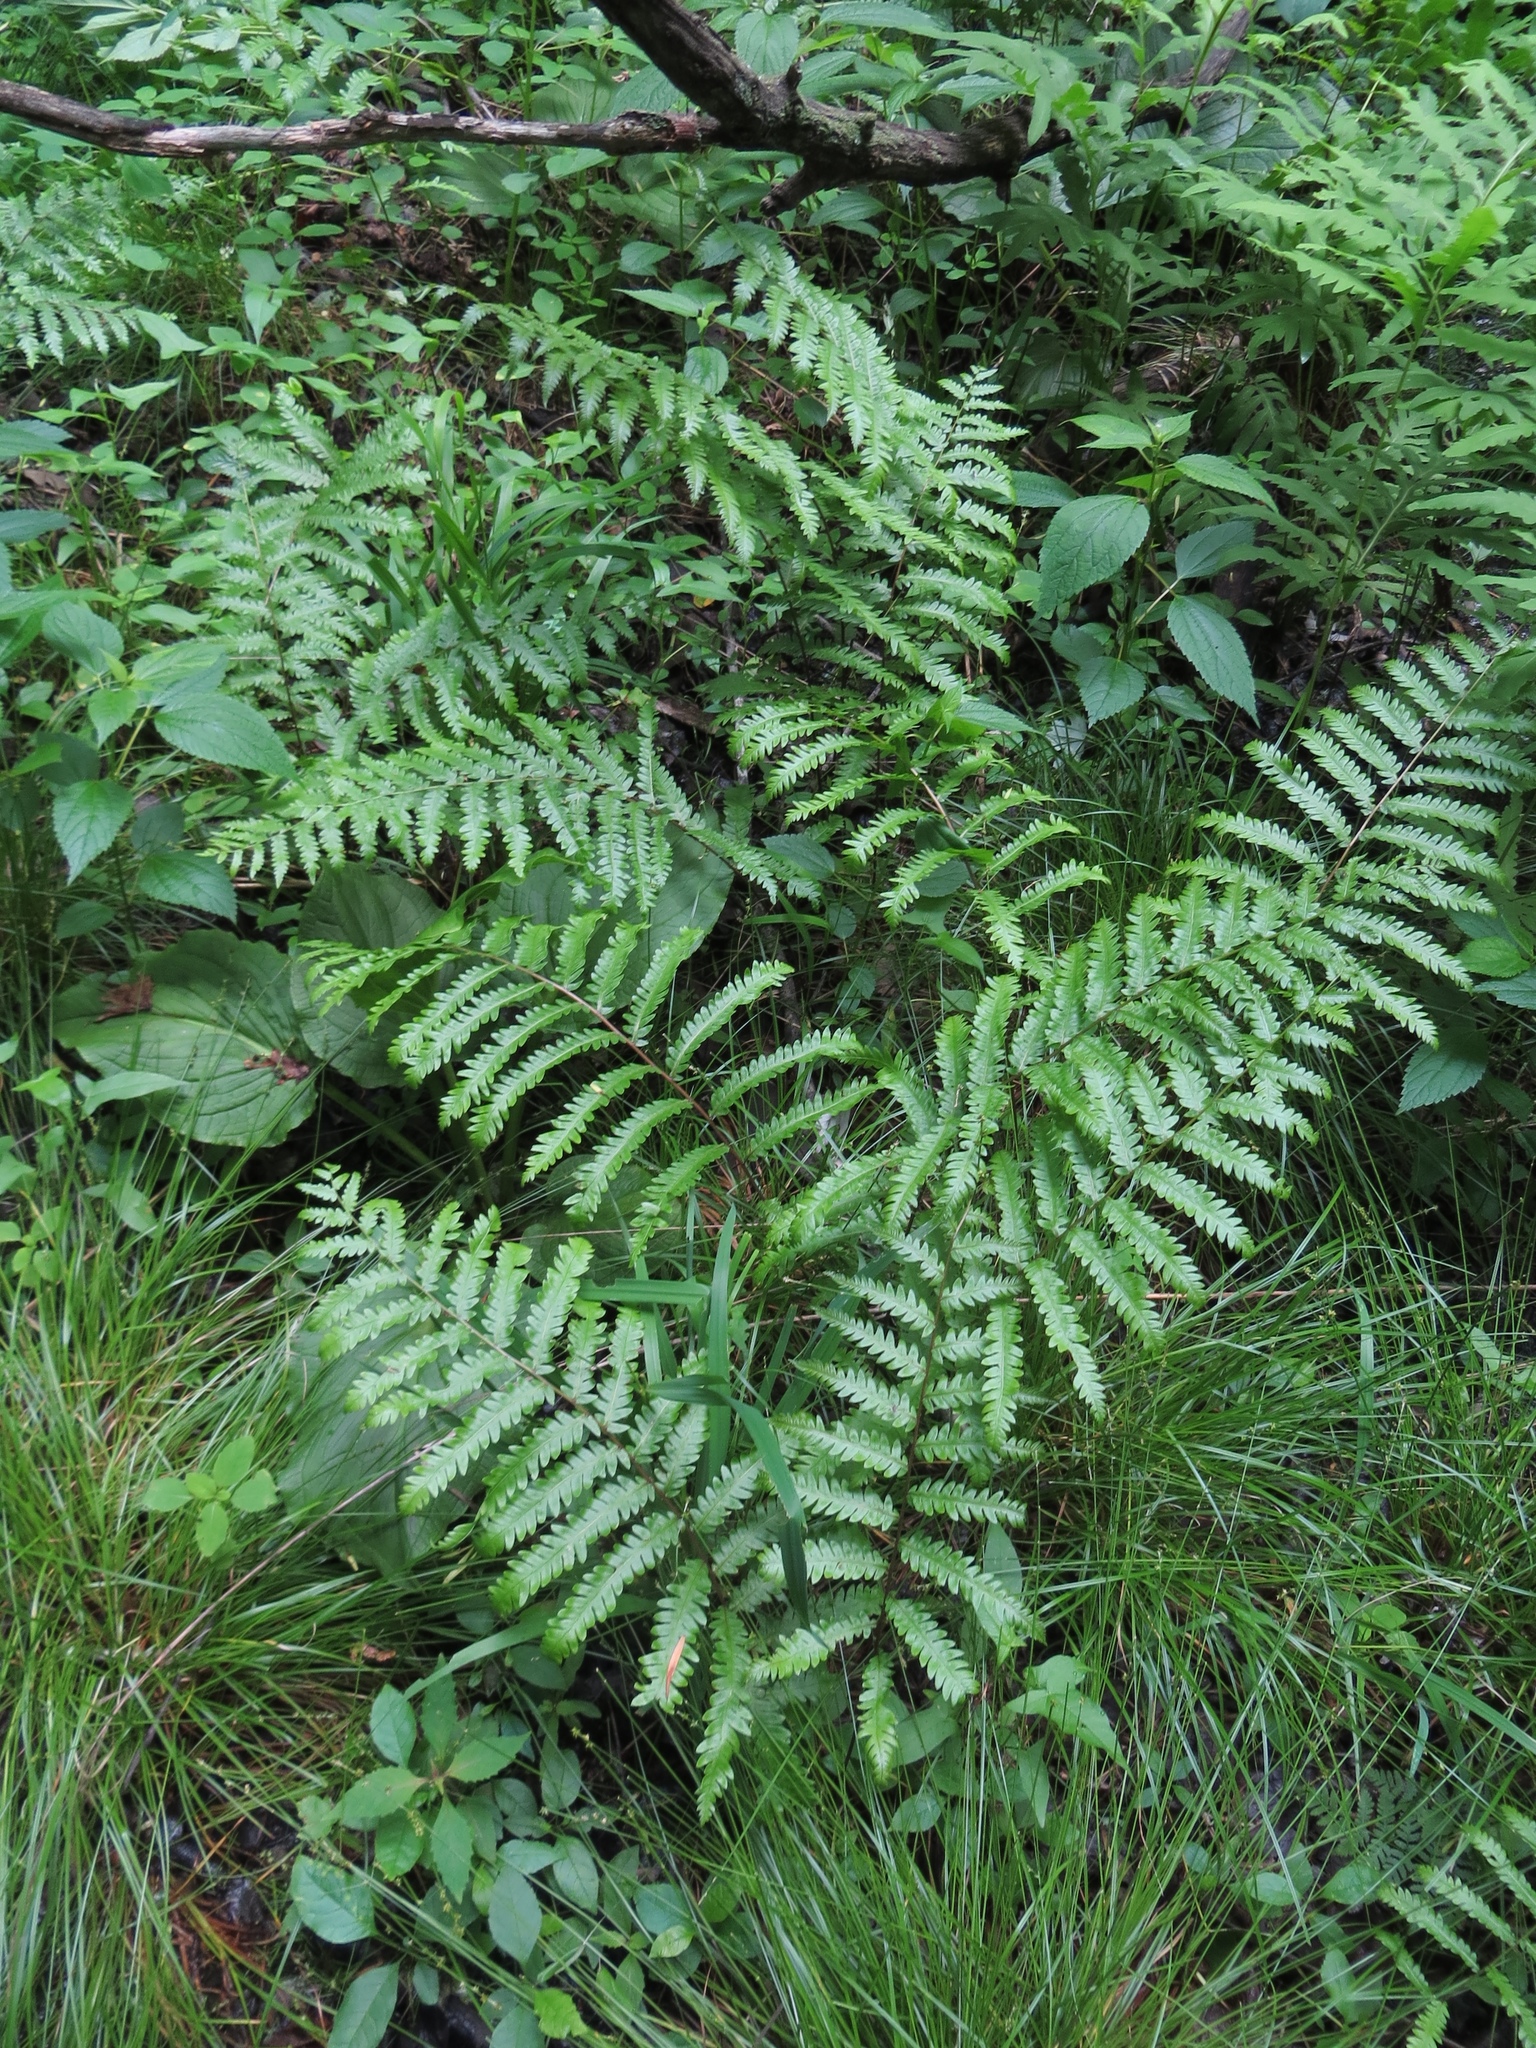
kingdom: Plantae
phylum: Tracheophyta
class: Polypodiopsida
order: Polypodiales
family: Blechnaceae
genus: Anchistea
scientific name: Anchistea virginica
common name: Virginia chain fern
